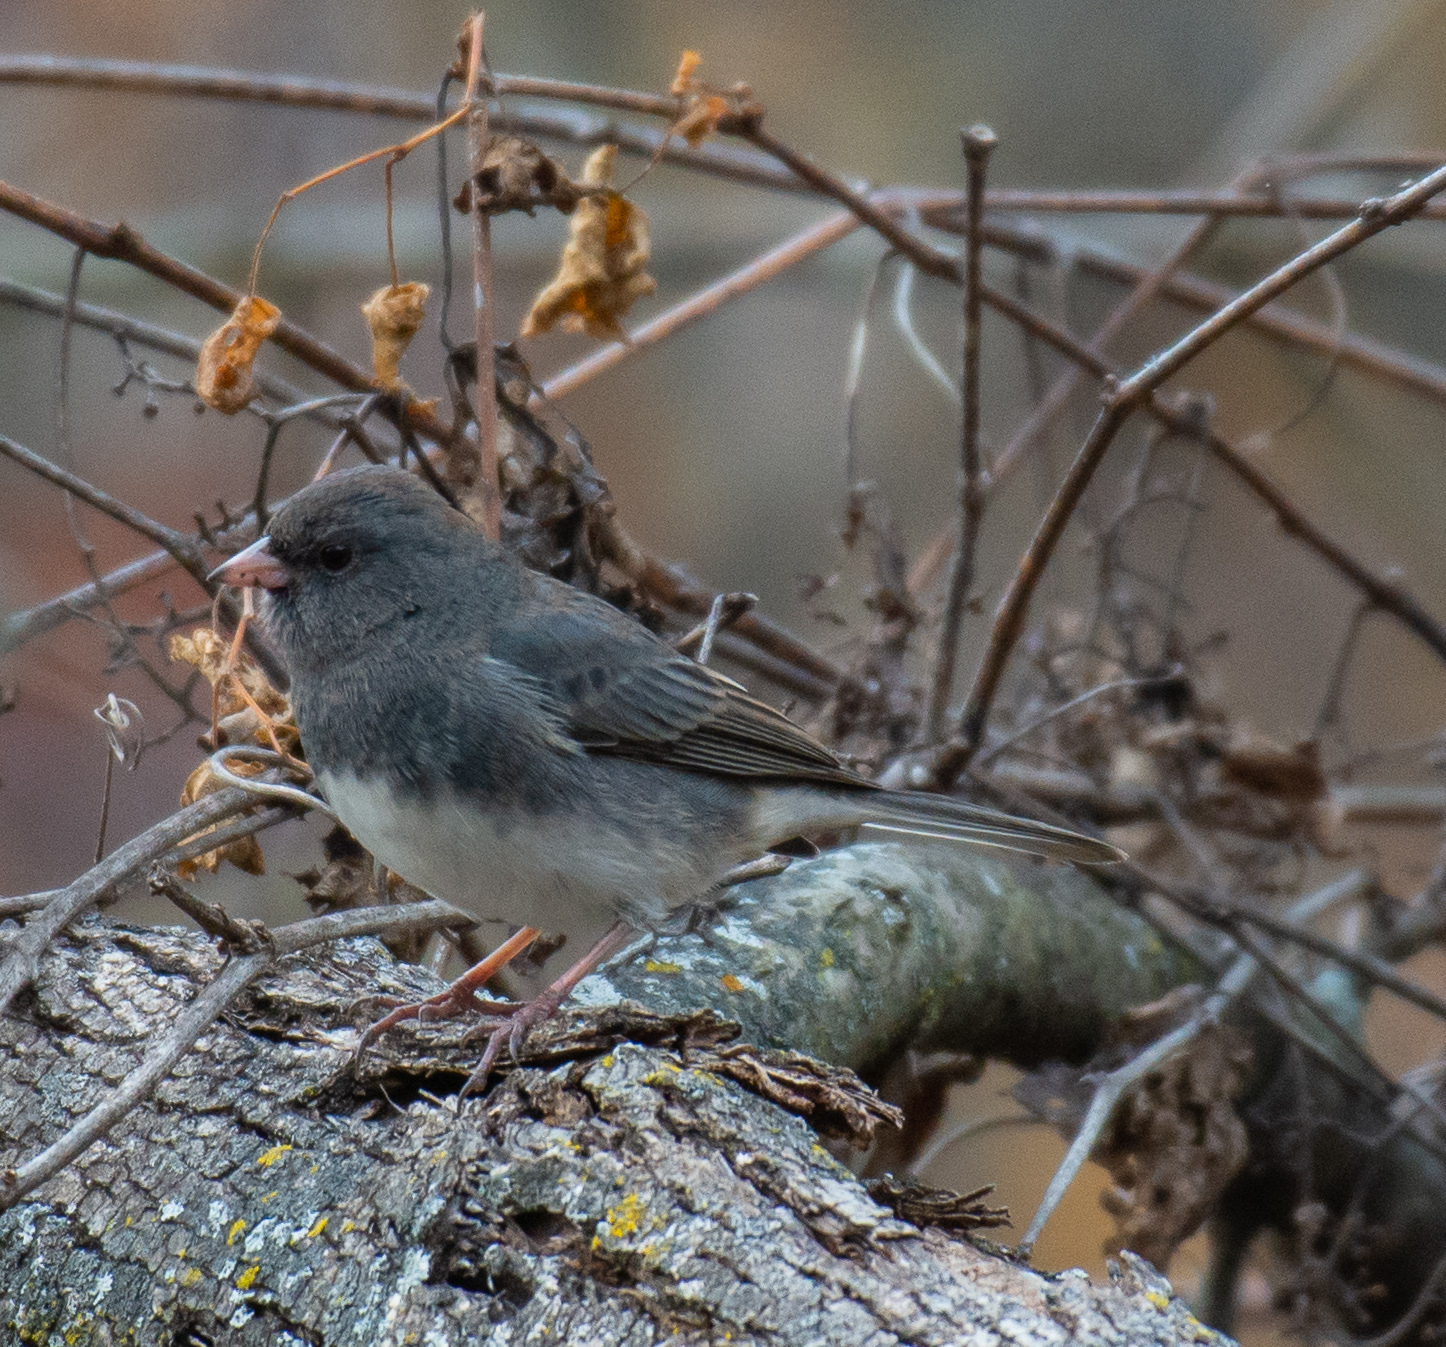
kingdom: Animalia
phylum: Chordata
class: Aves
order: Passeriformes
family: Passerellidae
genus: Junco
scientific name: Junco hyemalis
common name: Dark-eyed junco
